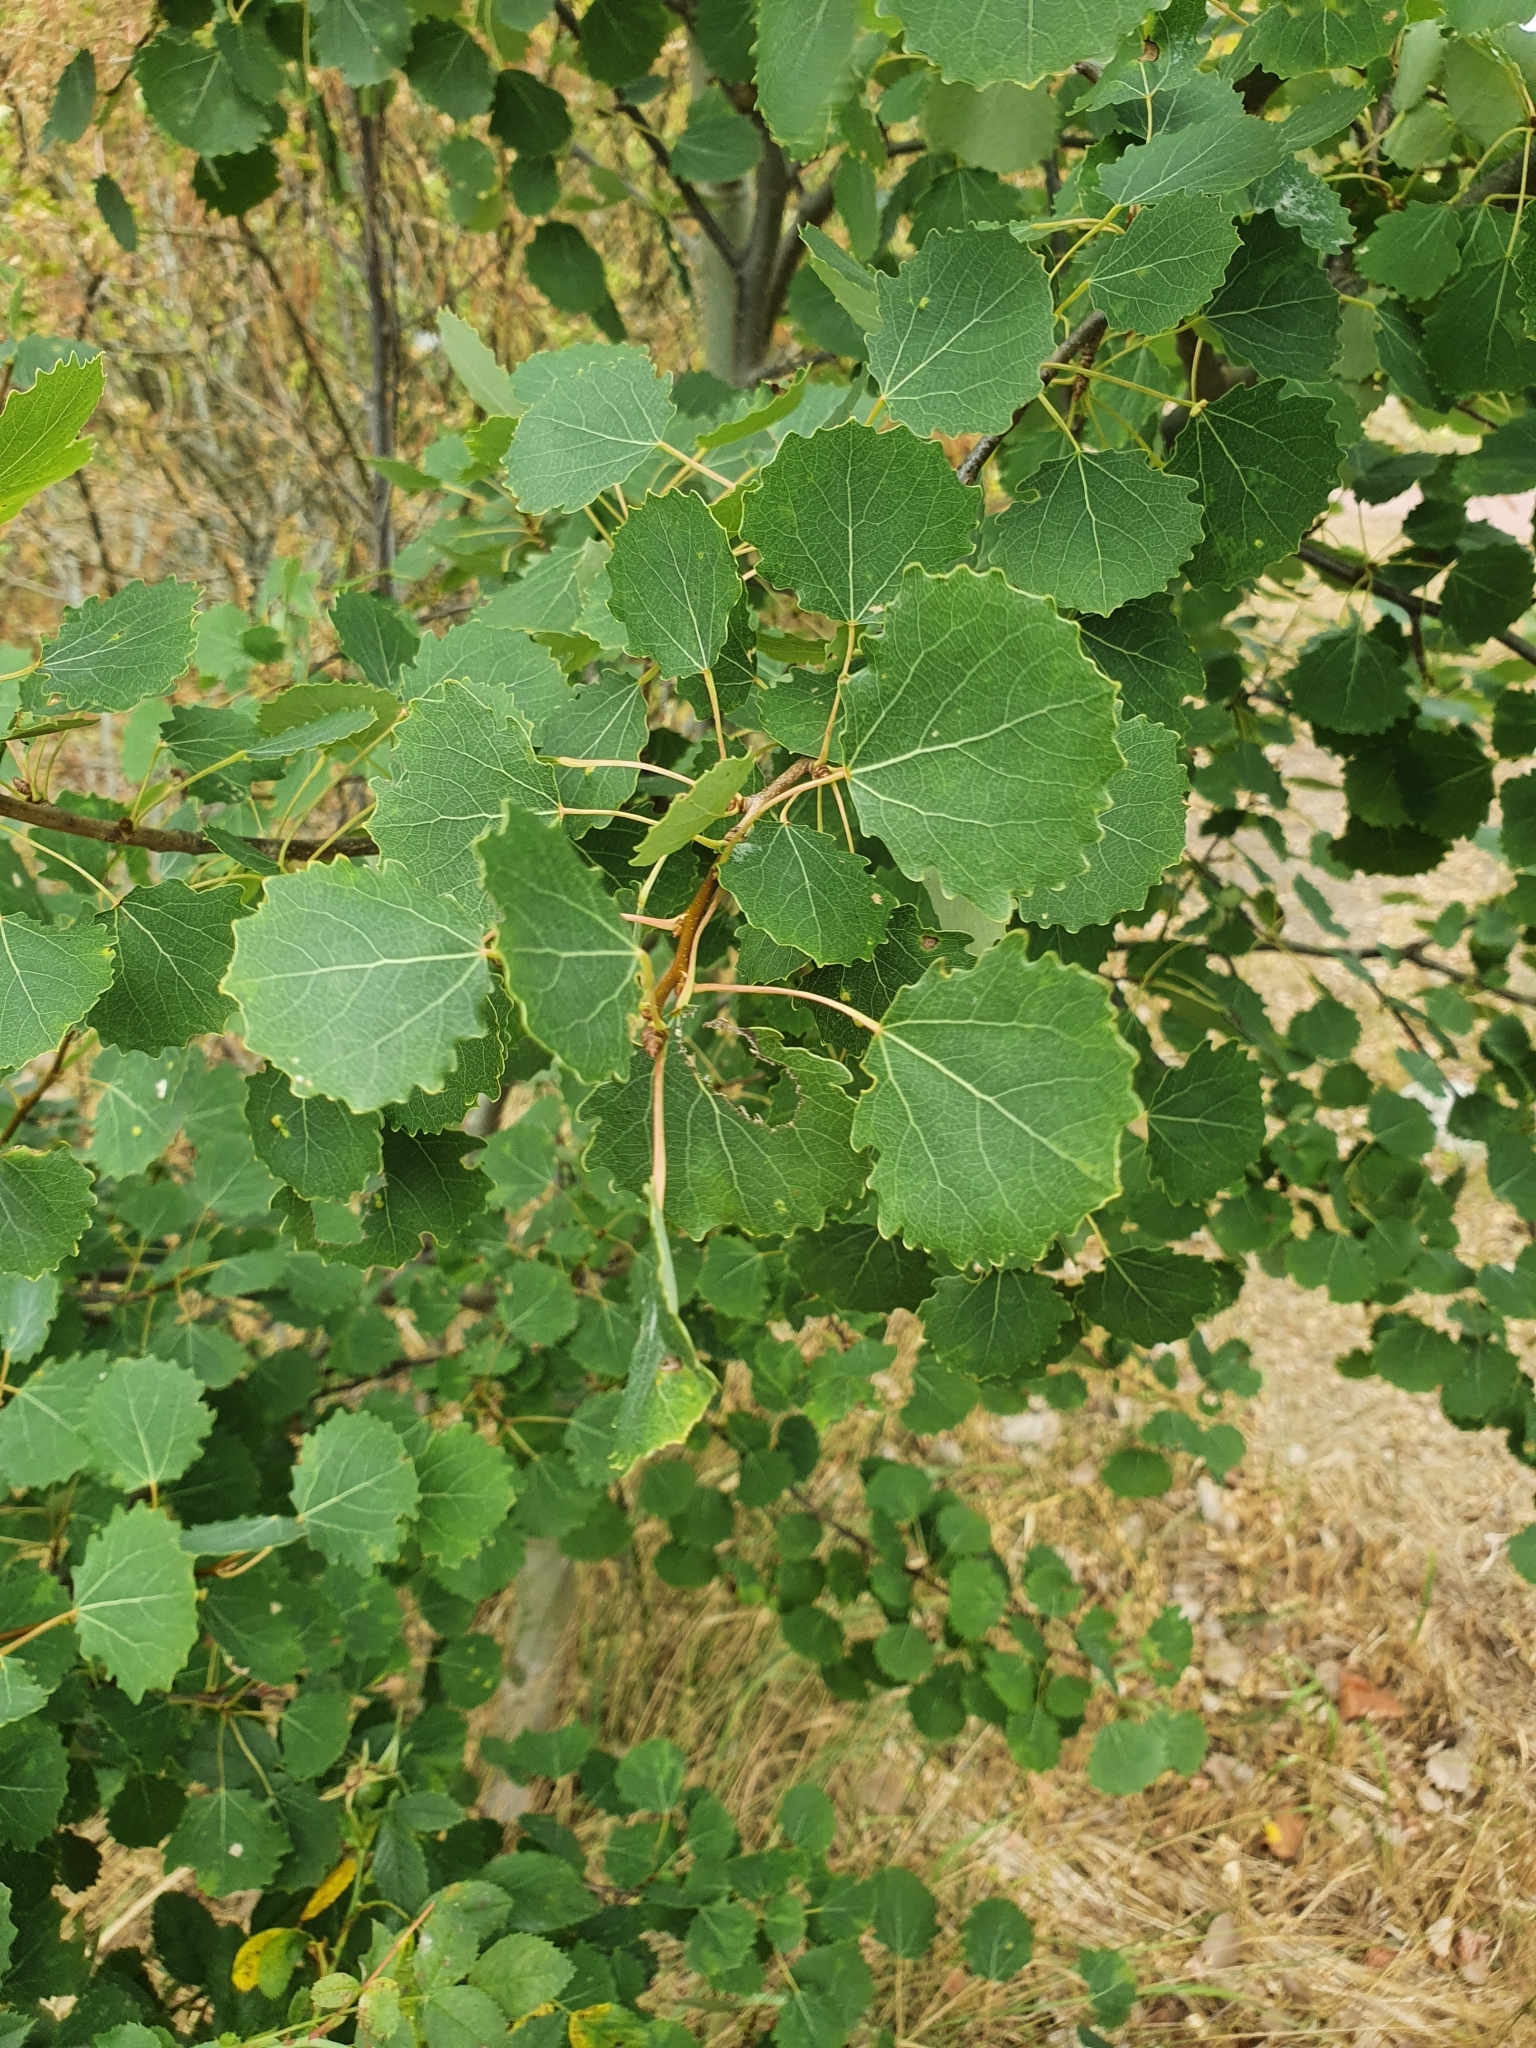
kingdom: Plantae
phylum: Tracheophyta
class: Magnoliopsida
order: Malpighiales
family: Salicaceae
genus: Populus
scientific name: Populus tremula
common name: European aspen
